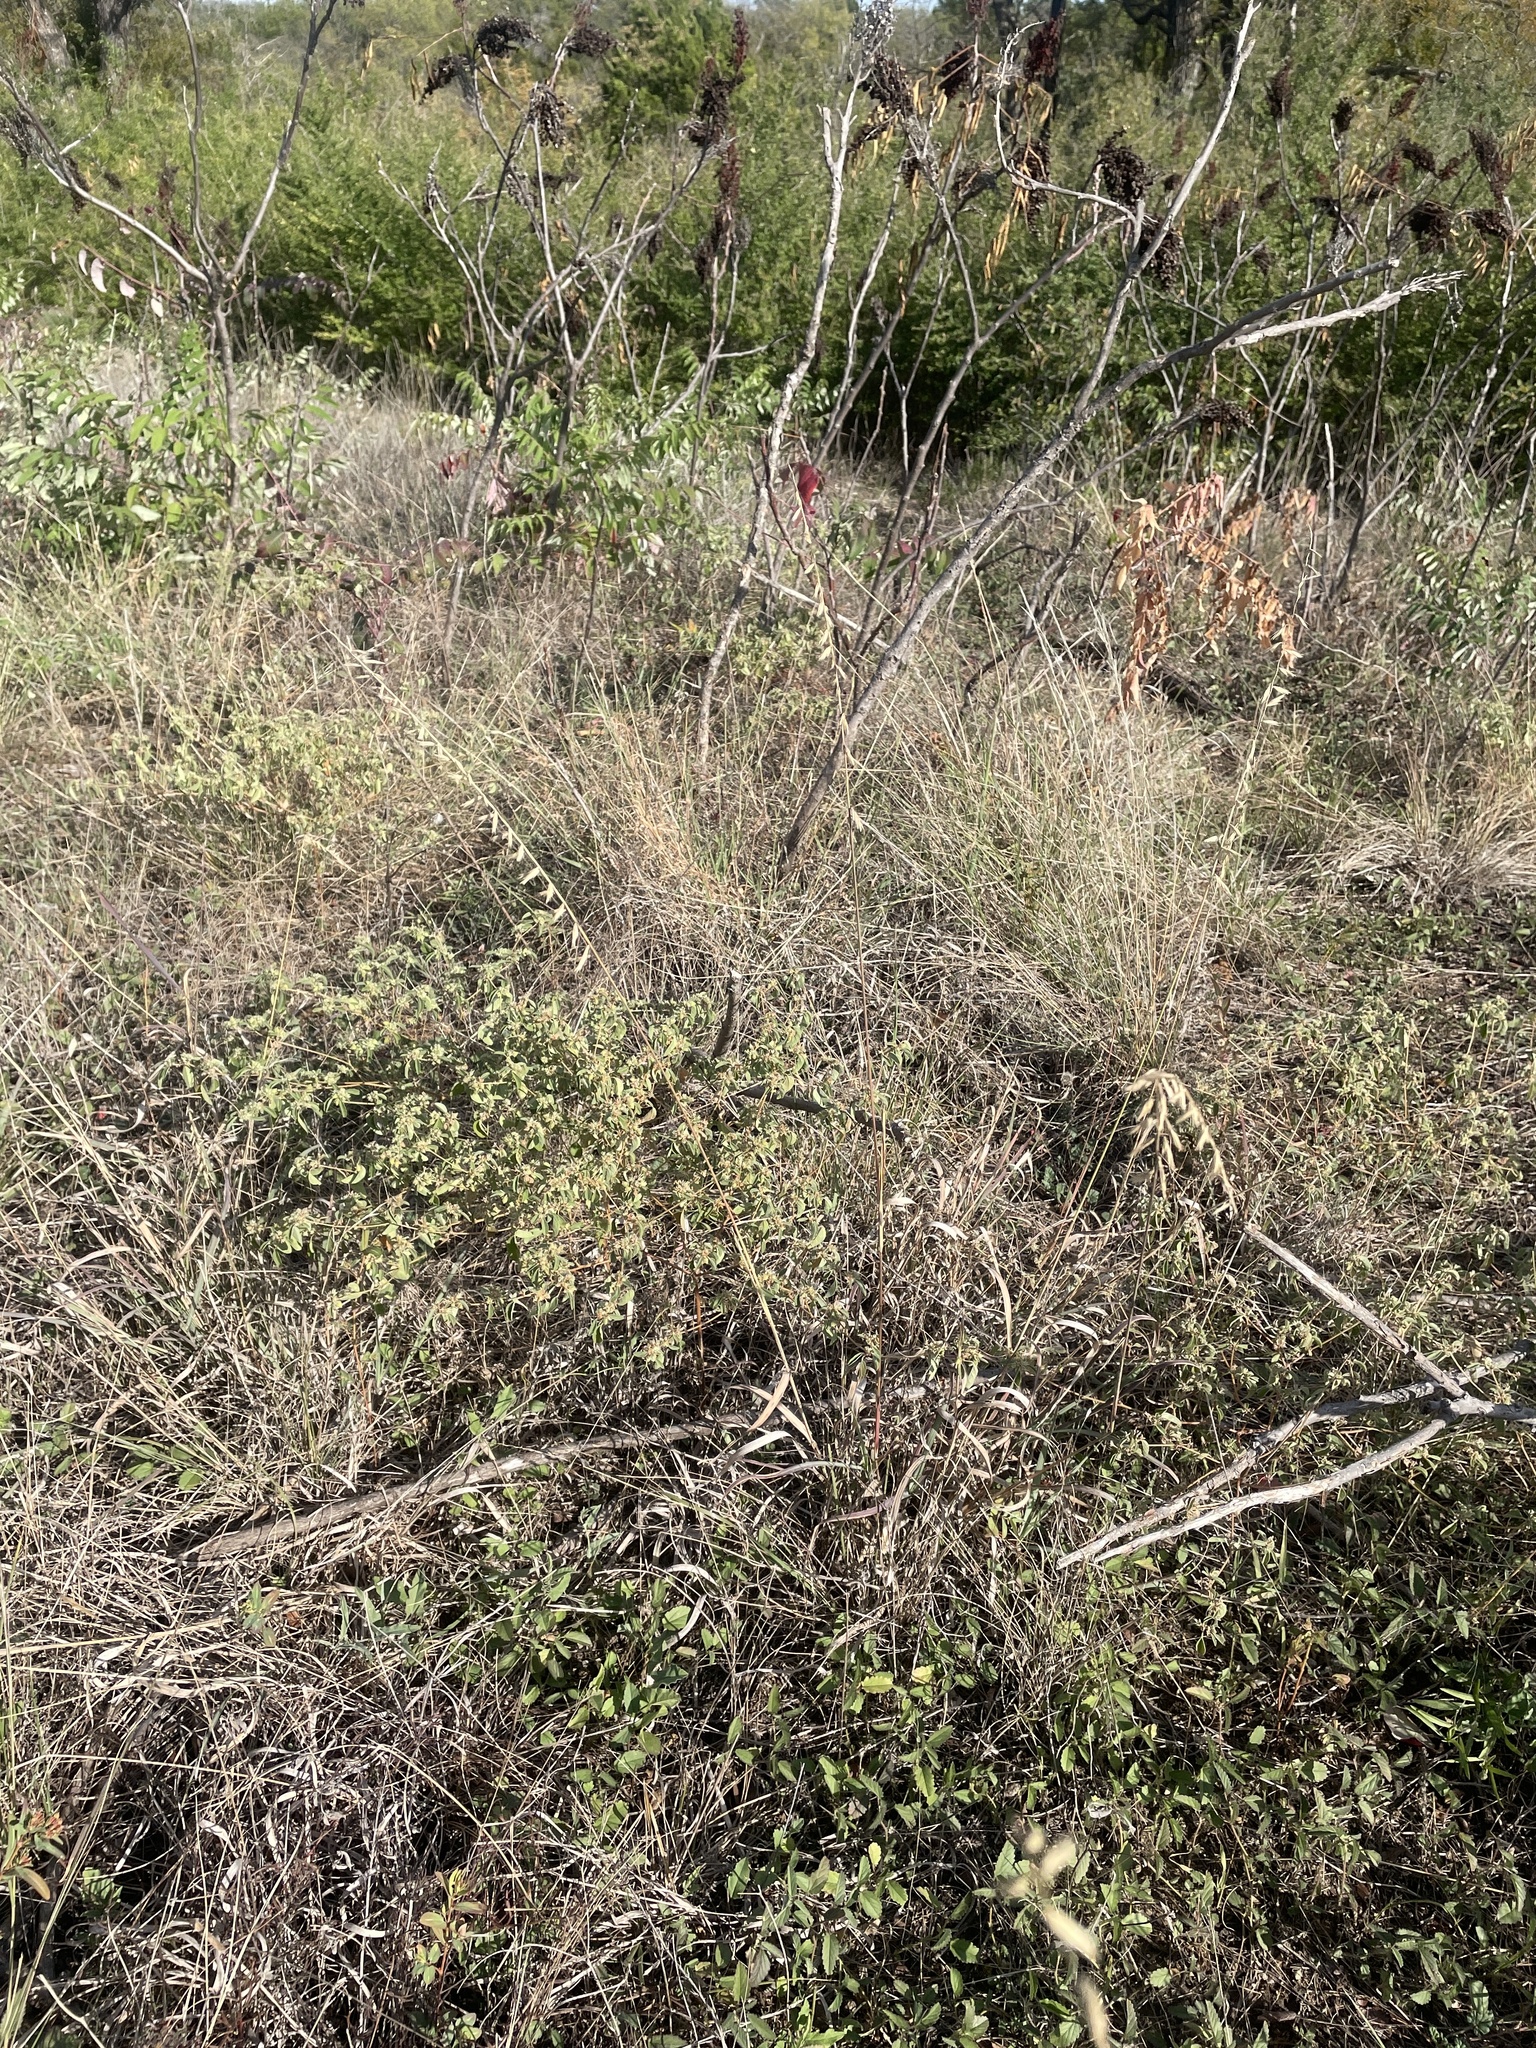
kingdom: Plantae
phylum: Tracheophyta
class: Liliopsida
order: Poales
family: Poaceae
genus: Bouteloua
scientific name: Bouteloua curtipendula
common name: Side-oats grama
